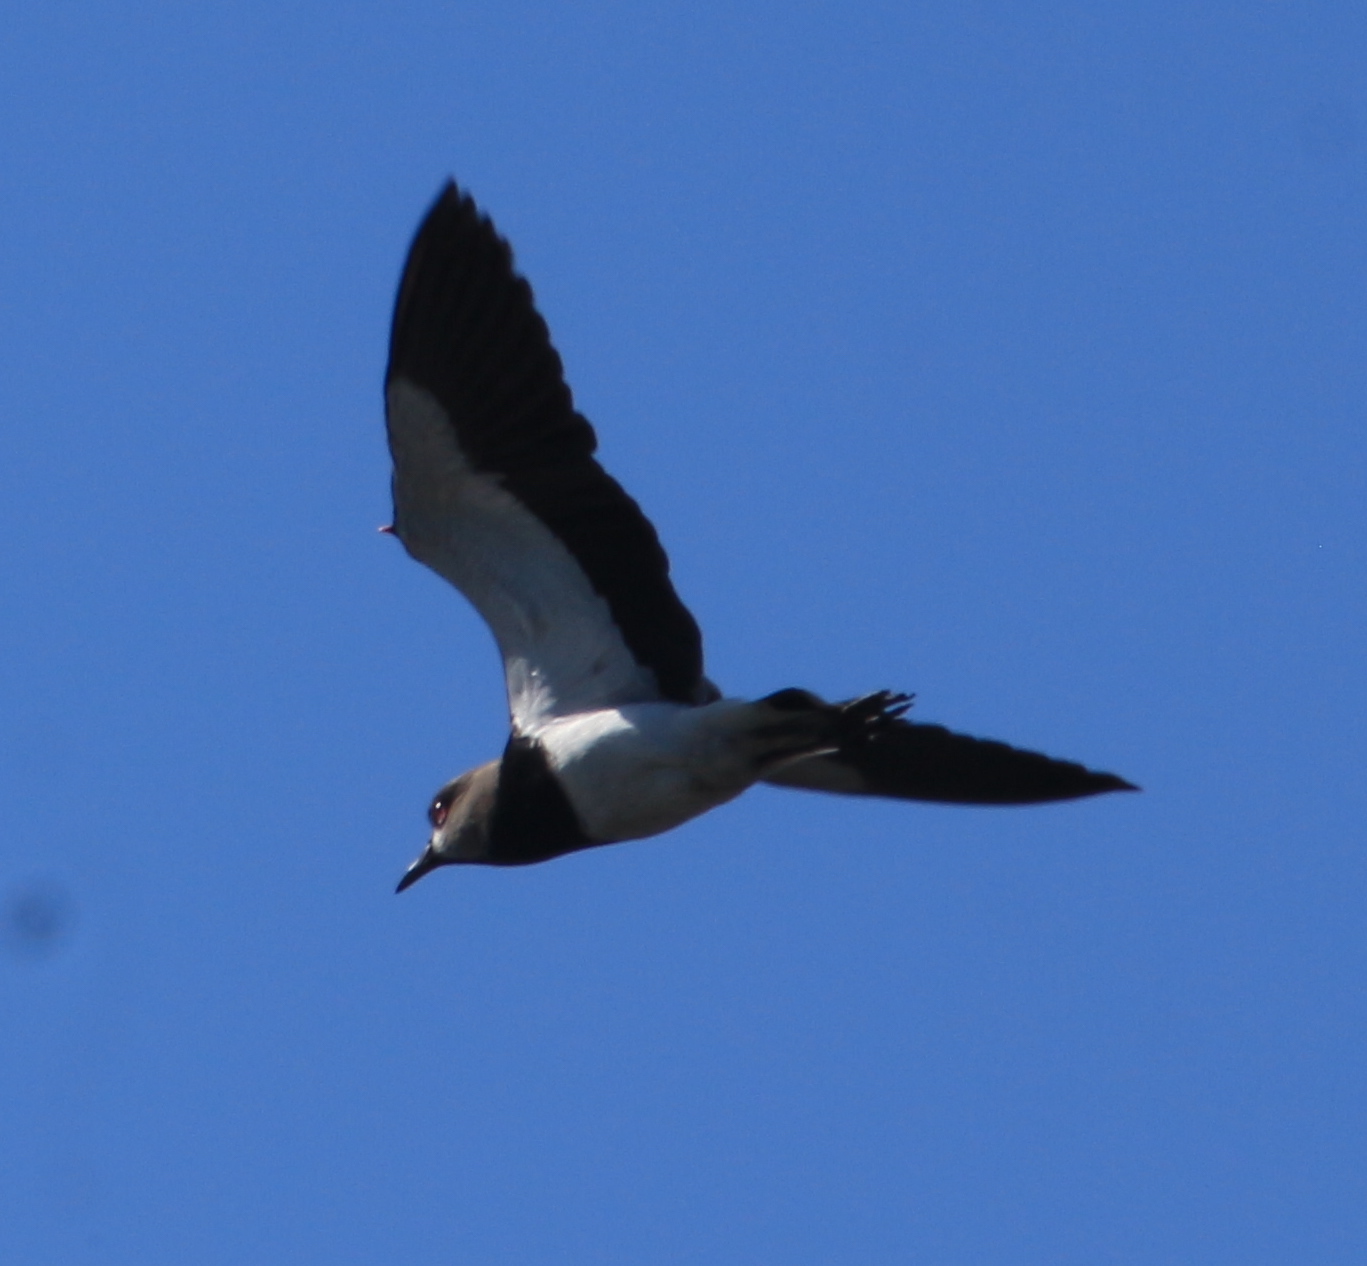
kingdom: Animalia
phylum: Chordata
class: Aves
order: Charadriiformes
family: Charadriidae
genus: Vanellus
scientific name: Vanellus chilensis
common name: Southern lapwing
